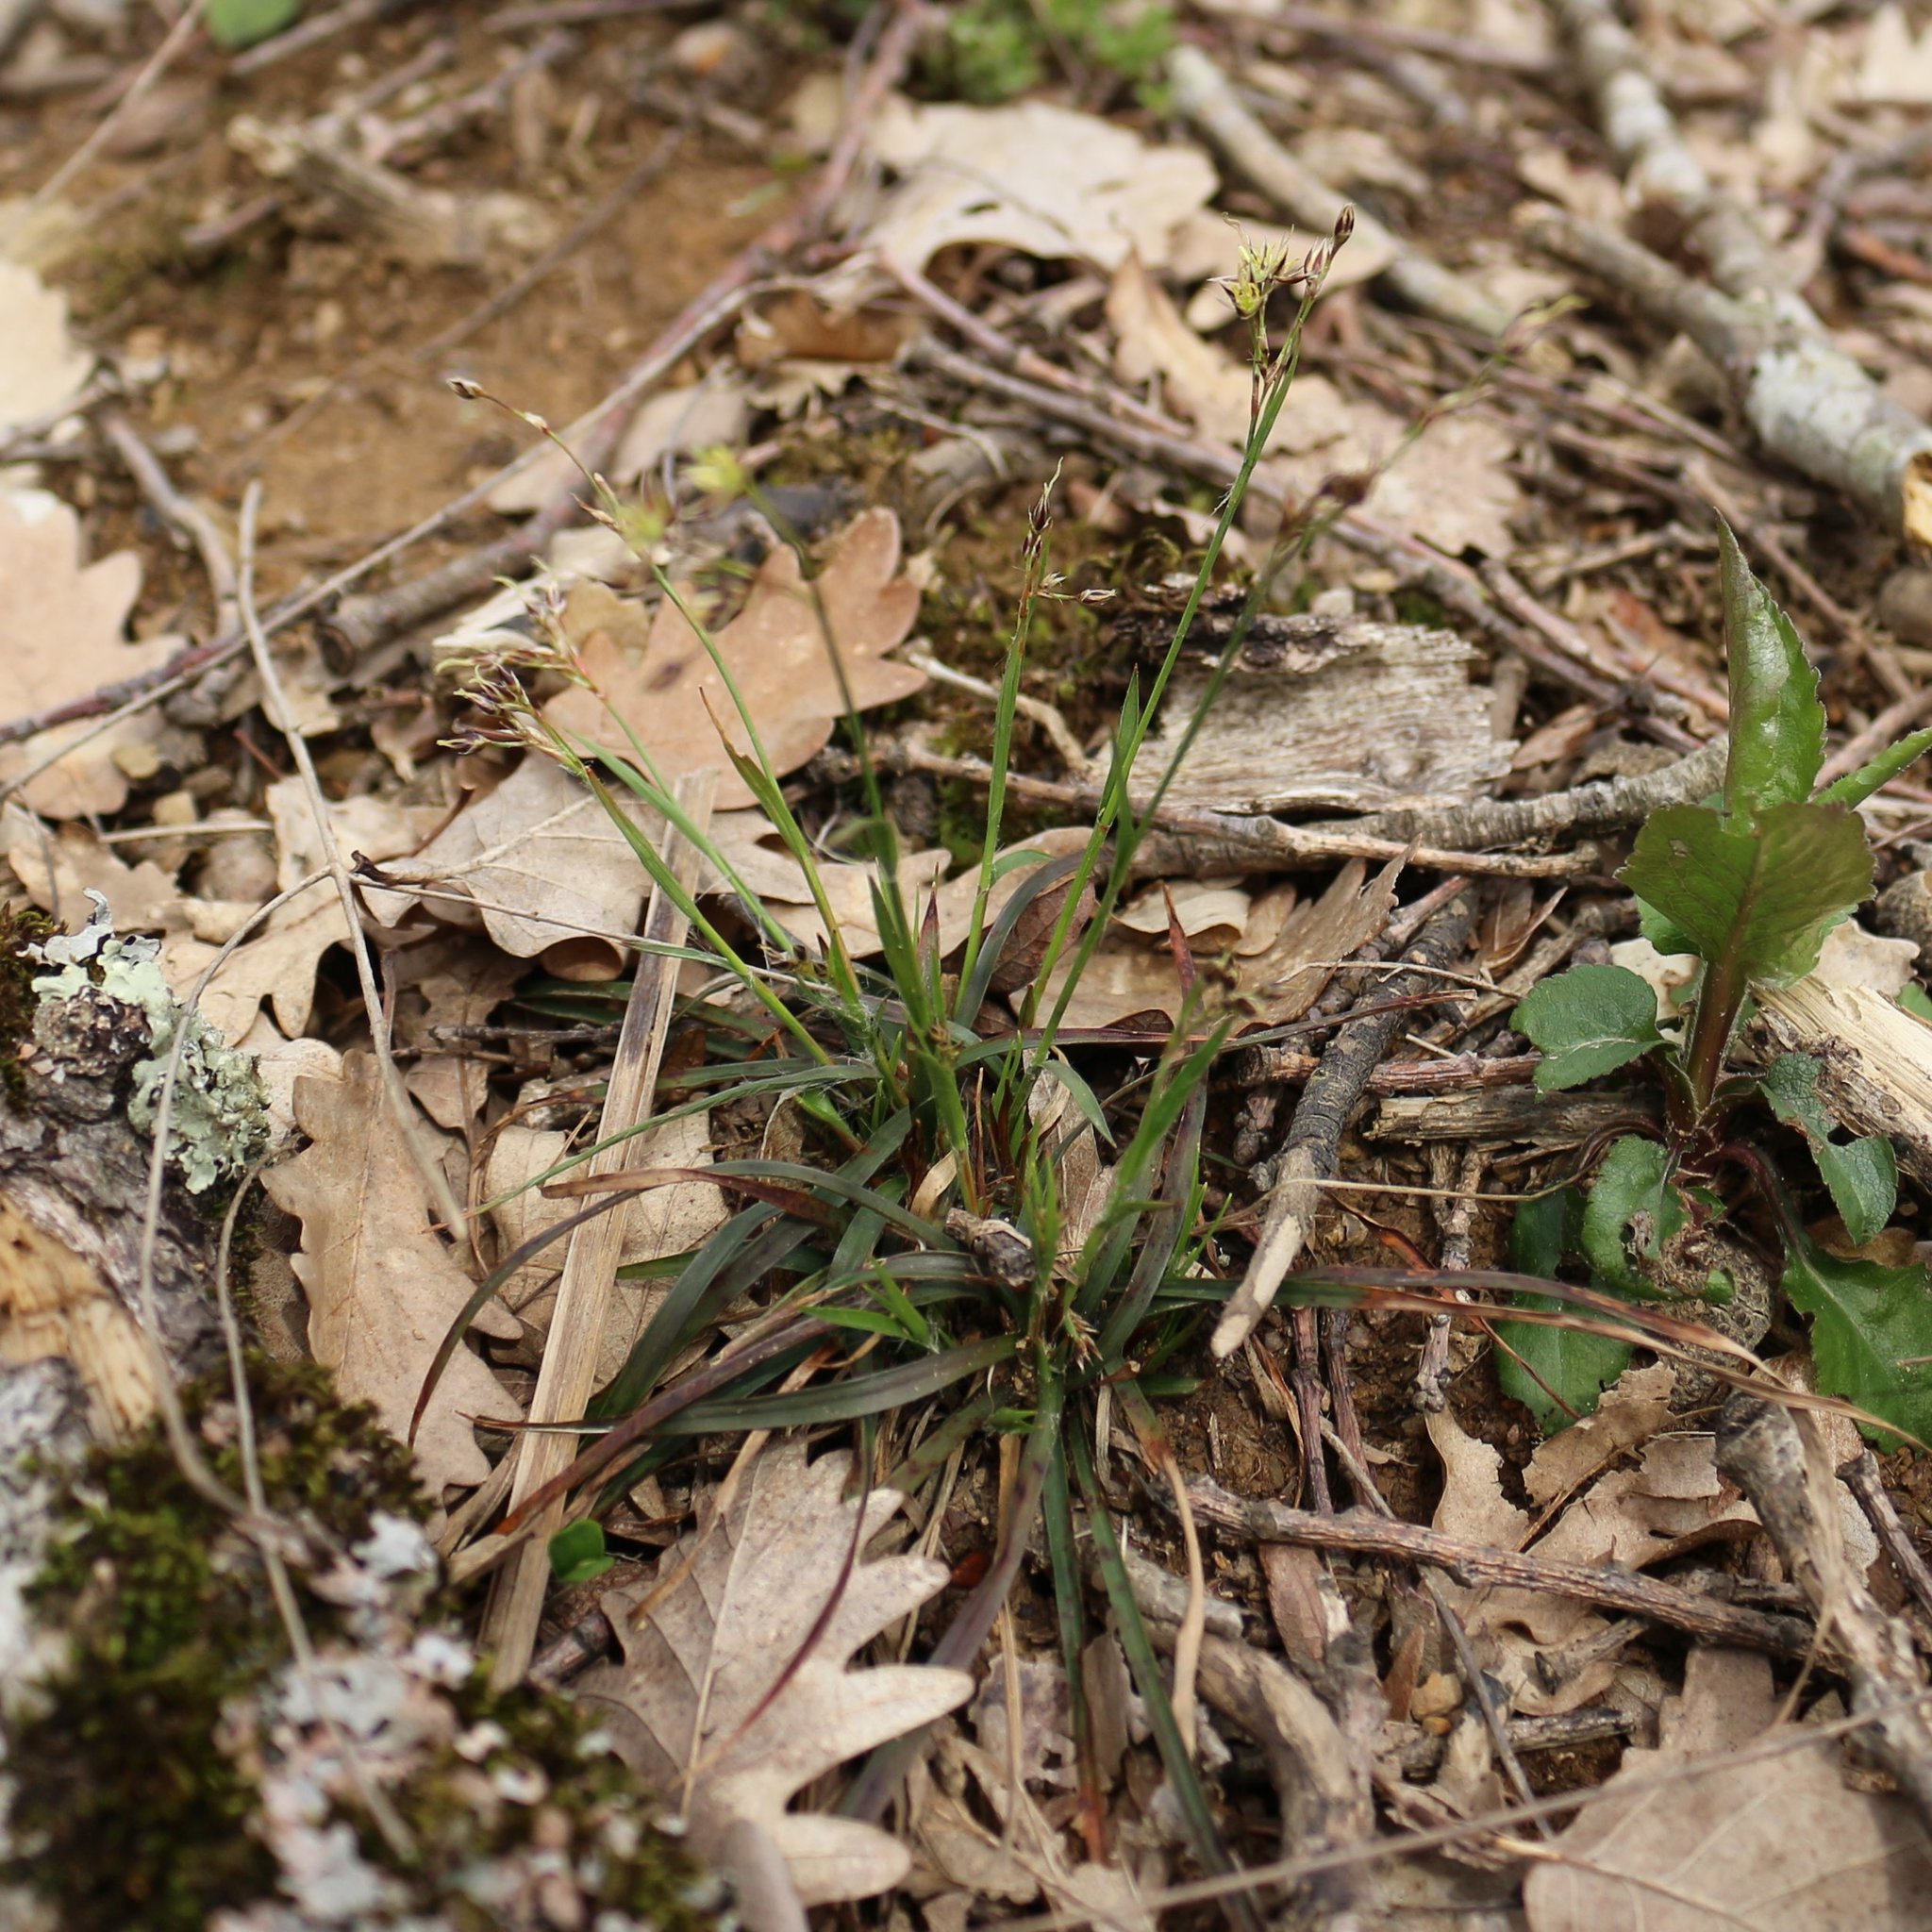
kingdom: Plantae
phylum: Tracheophyta
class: Liliopsida
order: Poales
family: Juncaceae
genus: Luzula
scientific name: Luzula forsteri
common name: Southern wood-rush
